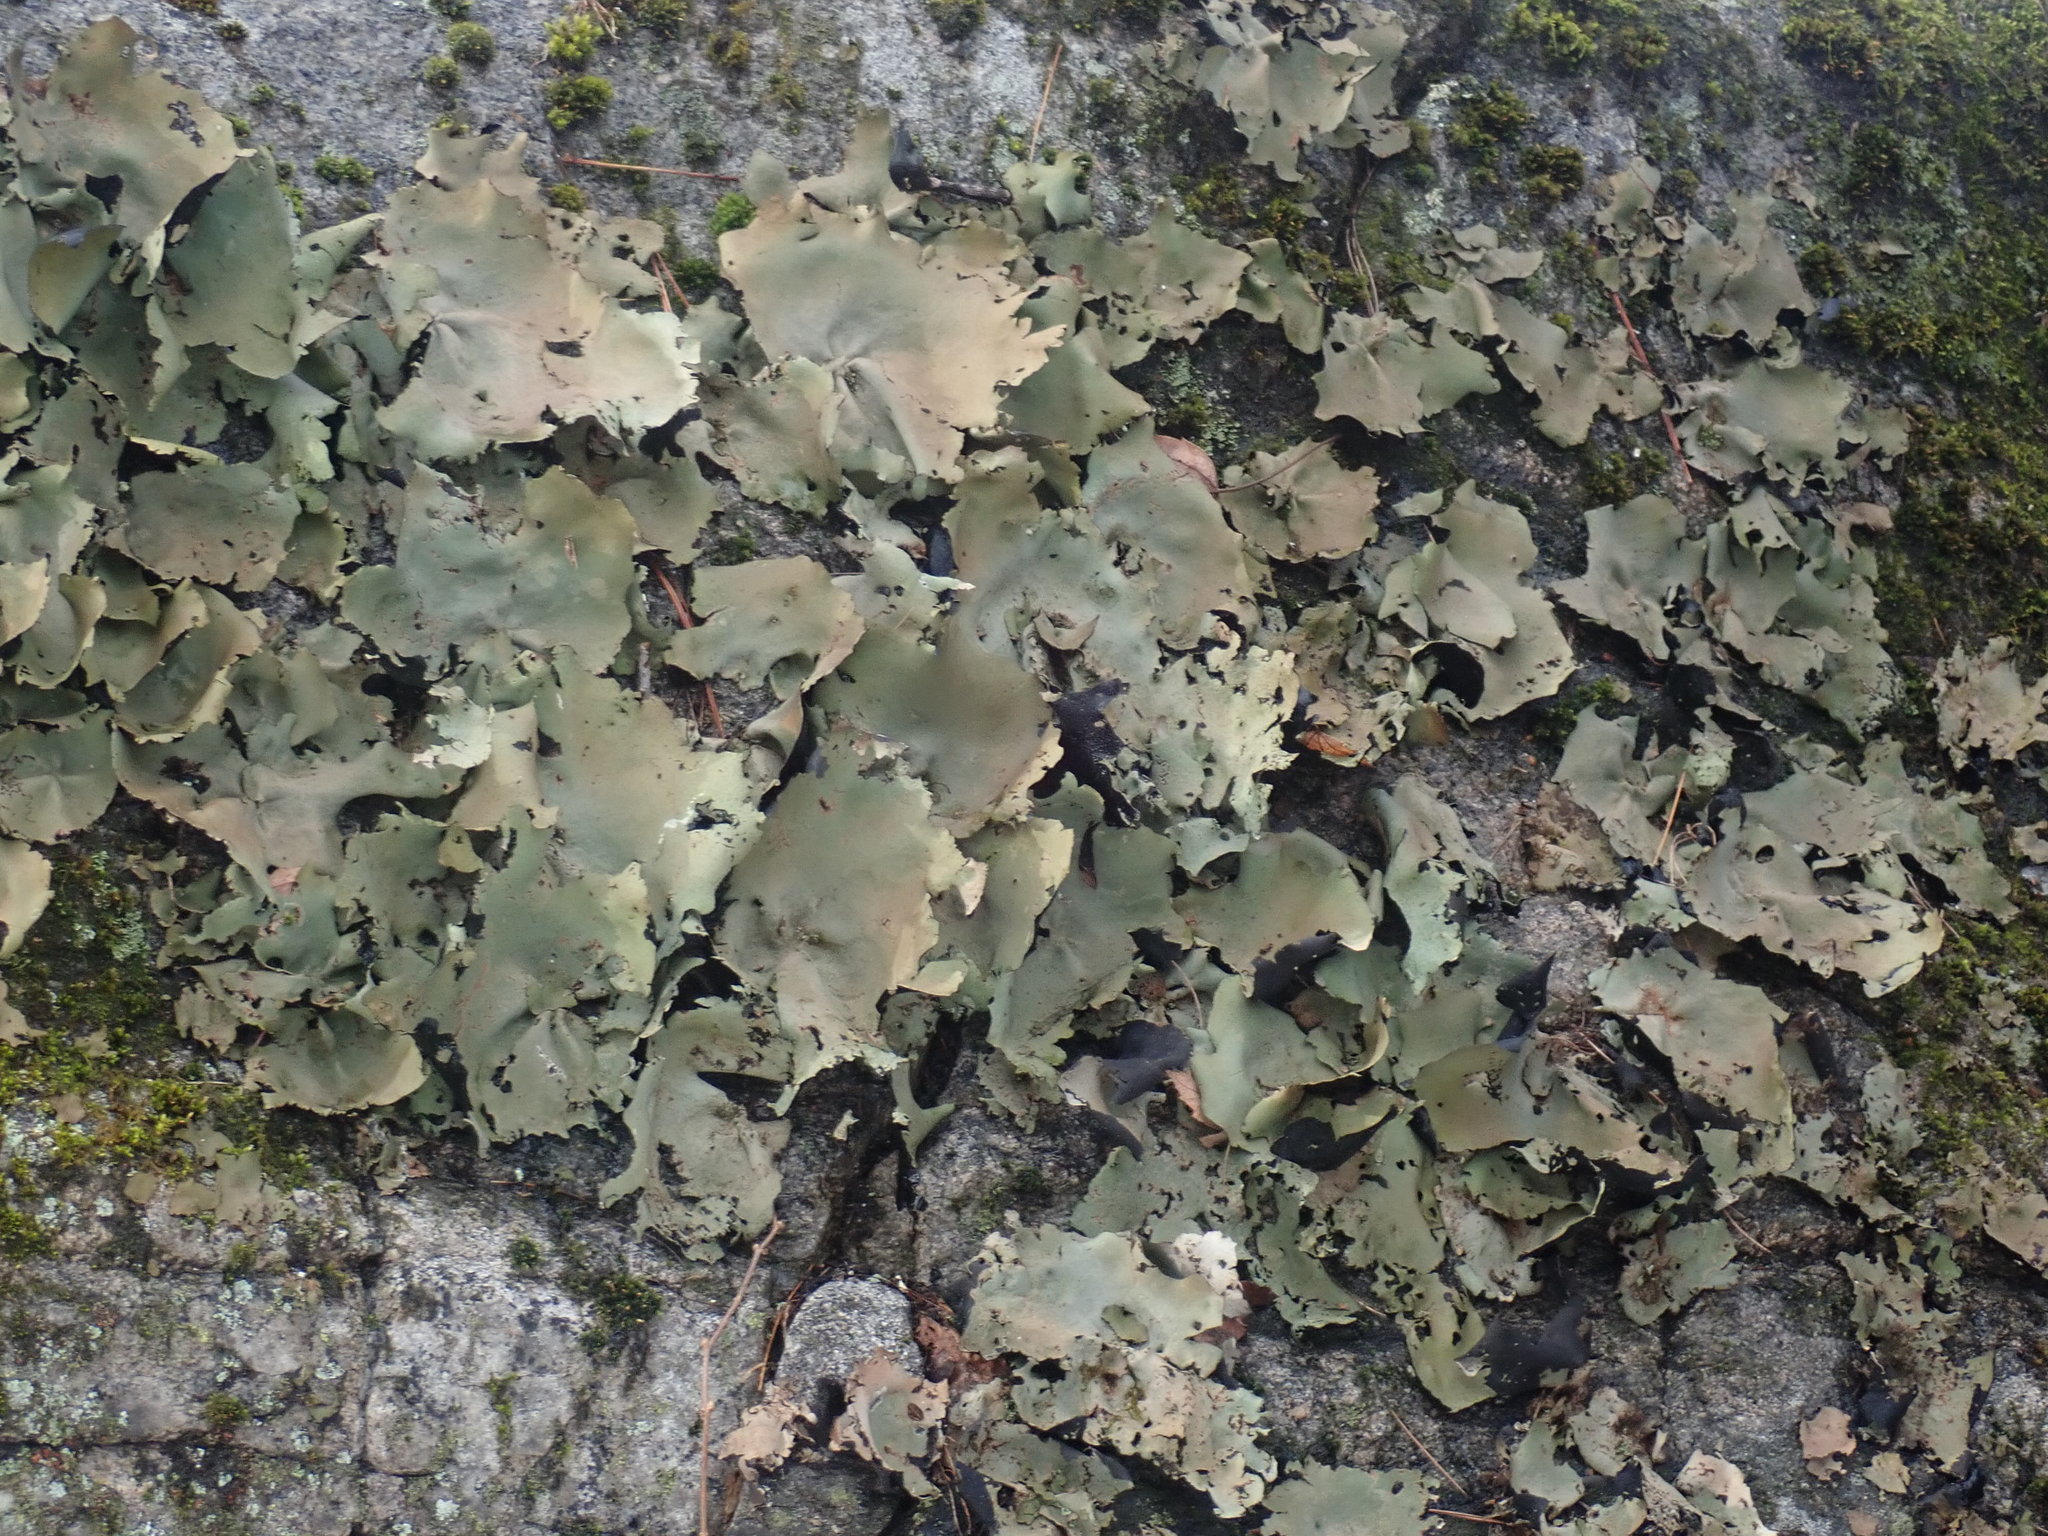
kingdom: Fungi
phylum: Ascomycota
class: Lecanoromycetes
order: Umbilicariales
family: Umbilicariaceae
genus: Umbilicaria
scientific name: Umbilicaria mammulata
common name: Smooth rock tripe
